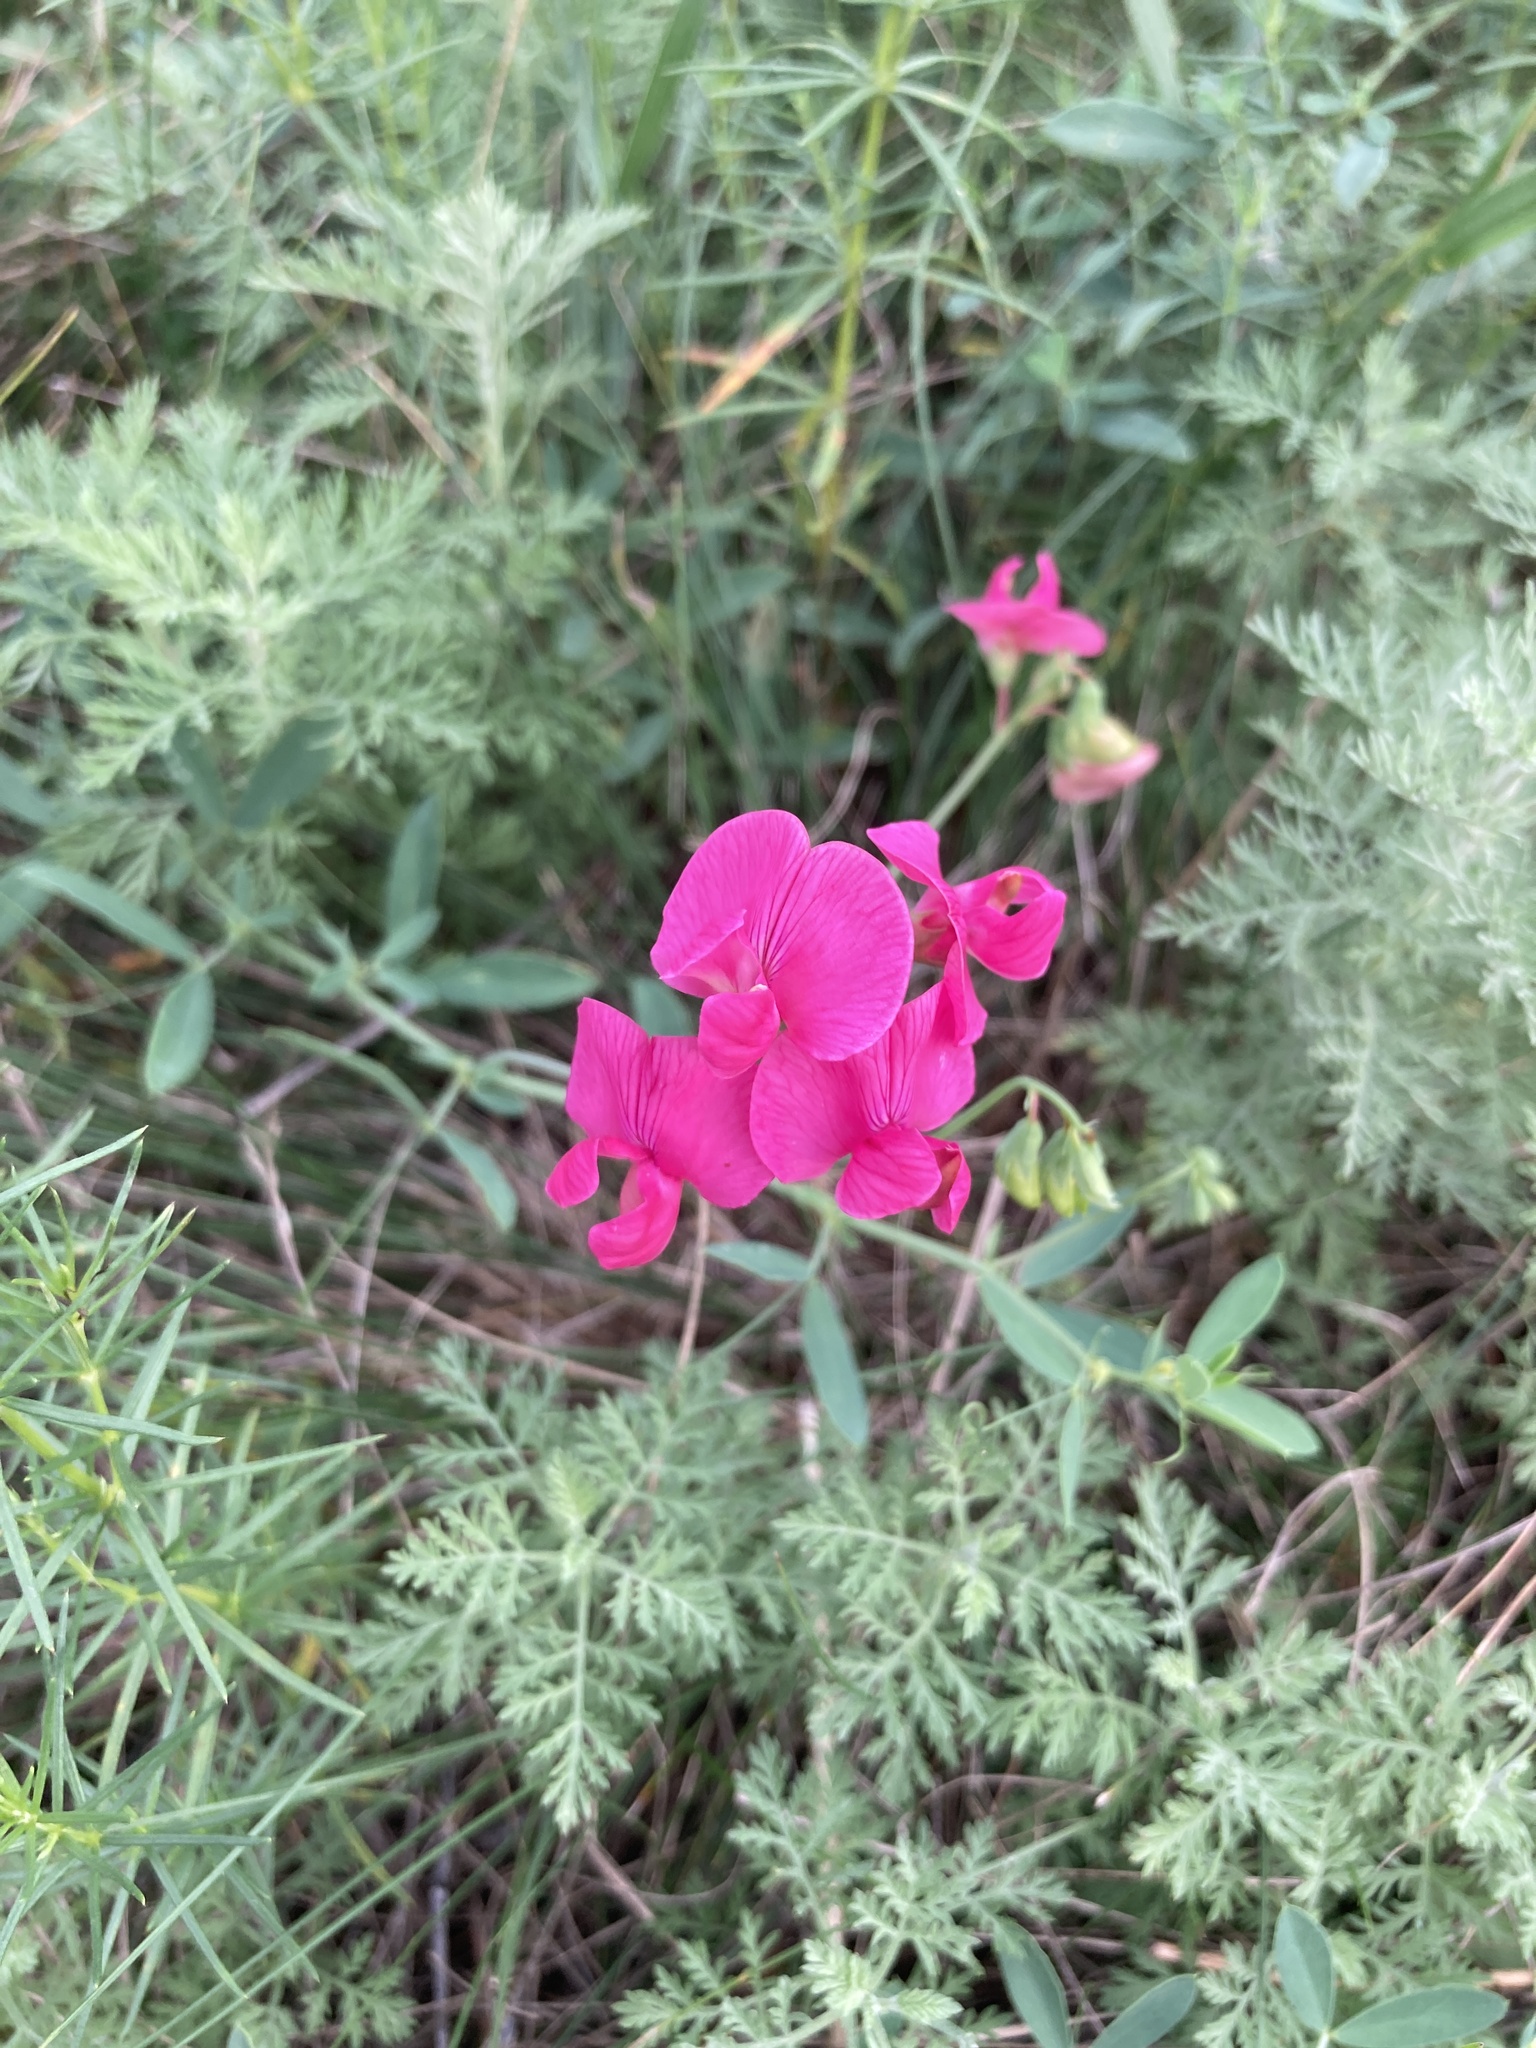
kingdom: Plantae
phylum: Tracheophyta
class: Magnoliopsida
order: Fabales
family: Fabaceae
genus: Lathyrus
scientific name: Lathyrus tuberosus
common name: Tuberous pea
